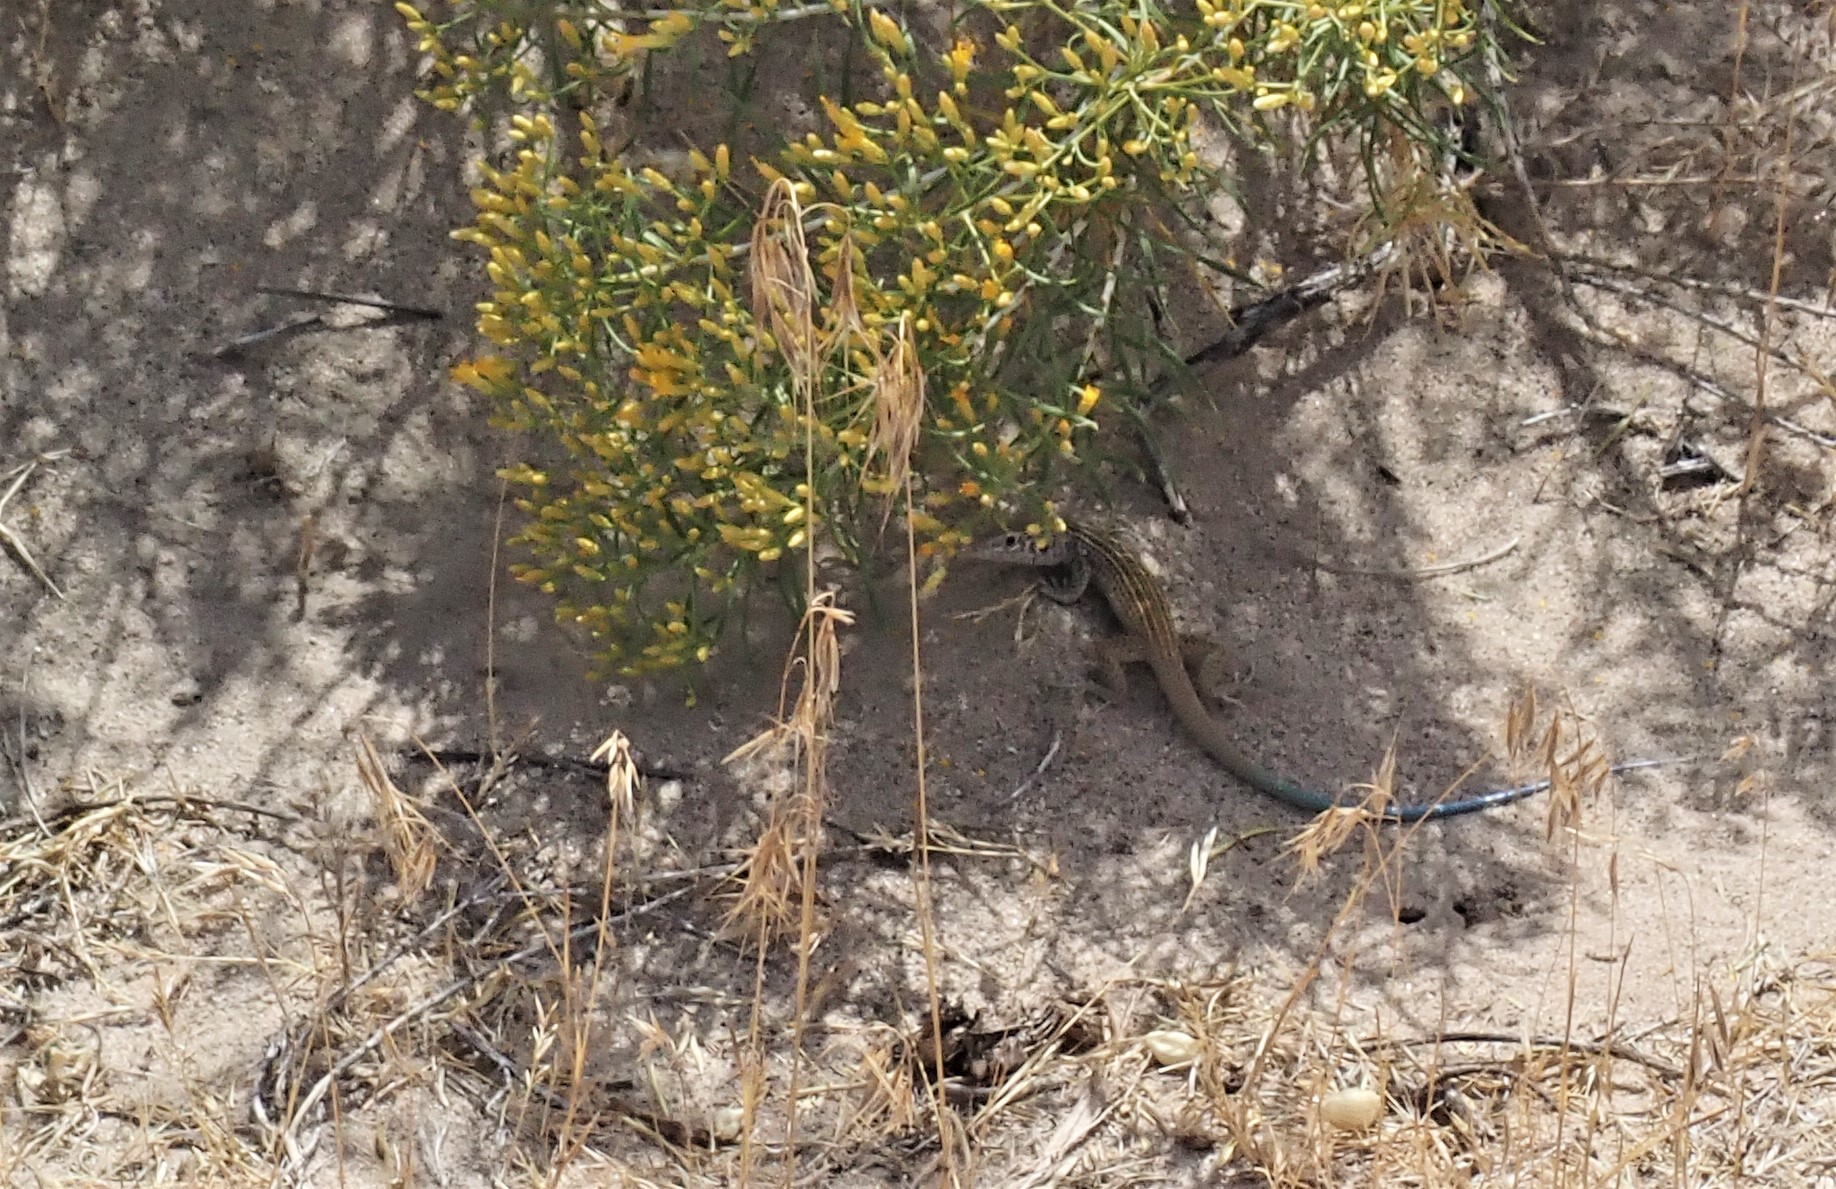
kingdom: Animalia
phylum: Chordata
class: Squamata
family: Teiidae
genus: Aspidoscelis
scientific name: Aspidoscelis tigris
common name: Tiger whiptail
